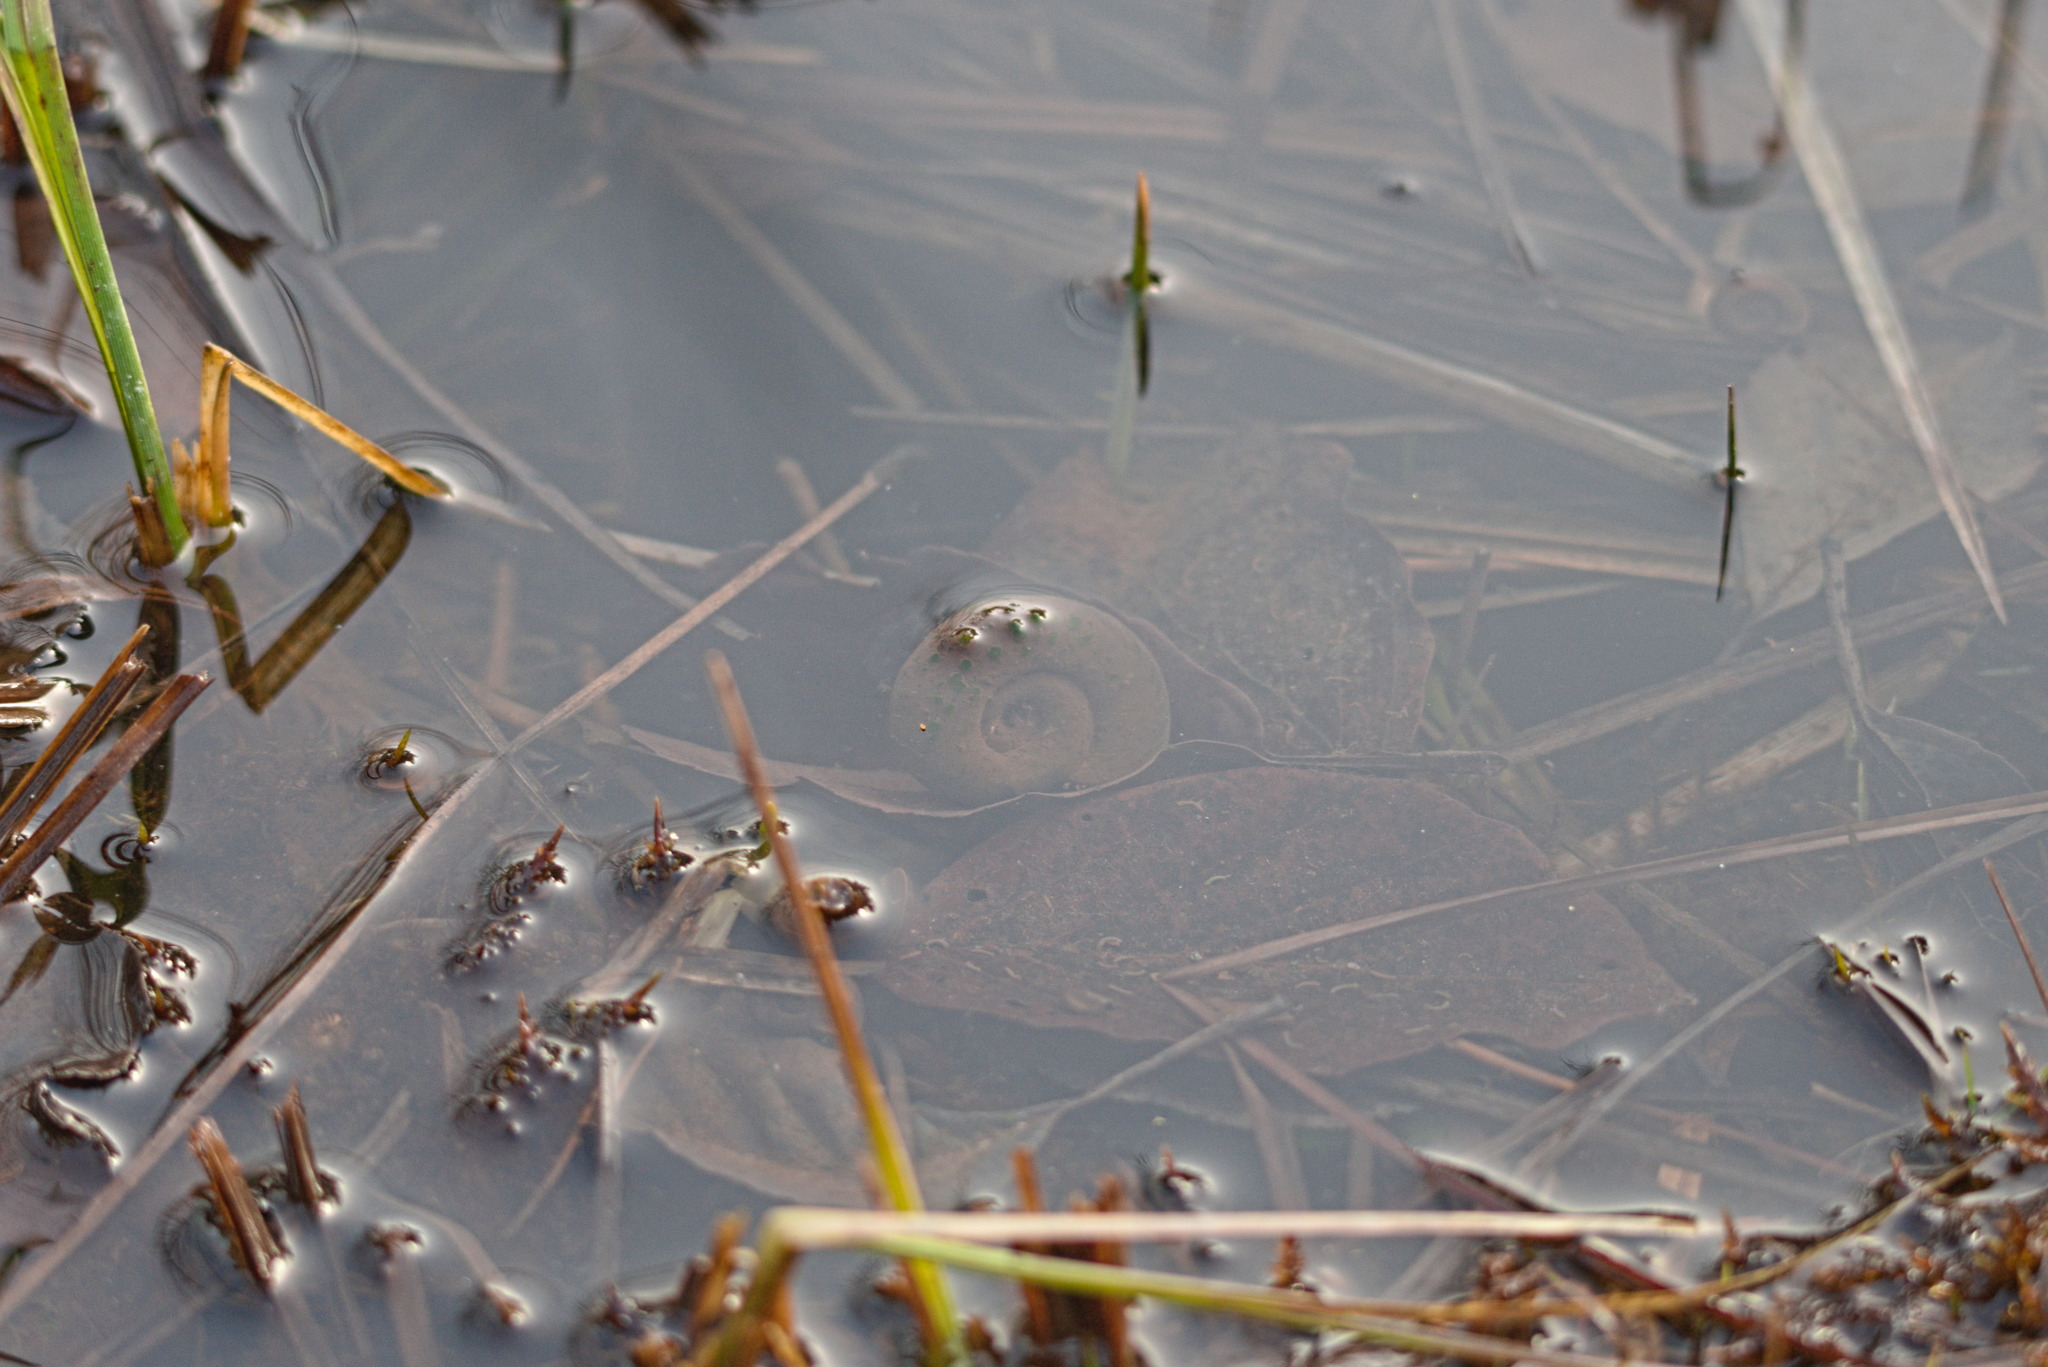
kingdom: Animalia
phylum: Mollusca
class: Gastropoda
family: Planorbidae
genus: Planorbarius
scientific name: Planorbarius corneus
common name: Great ramshorn
